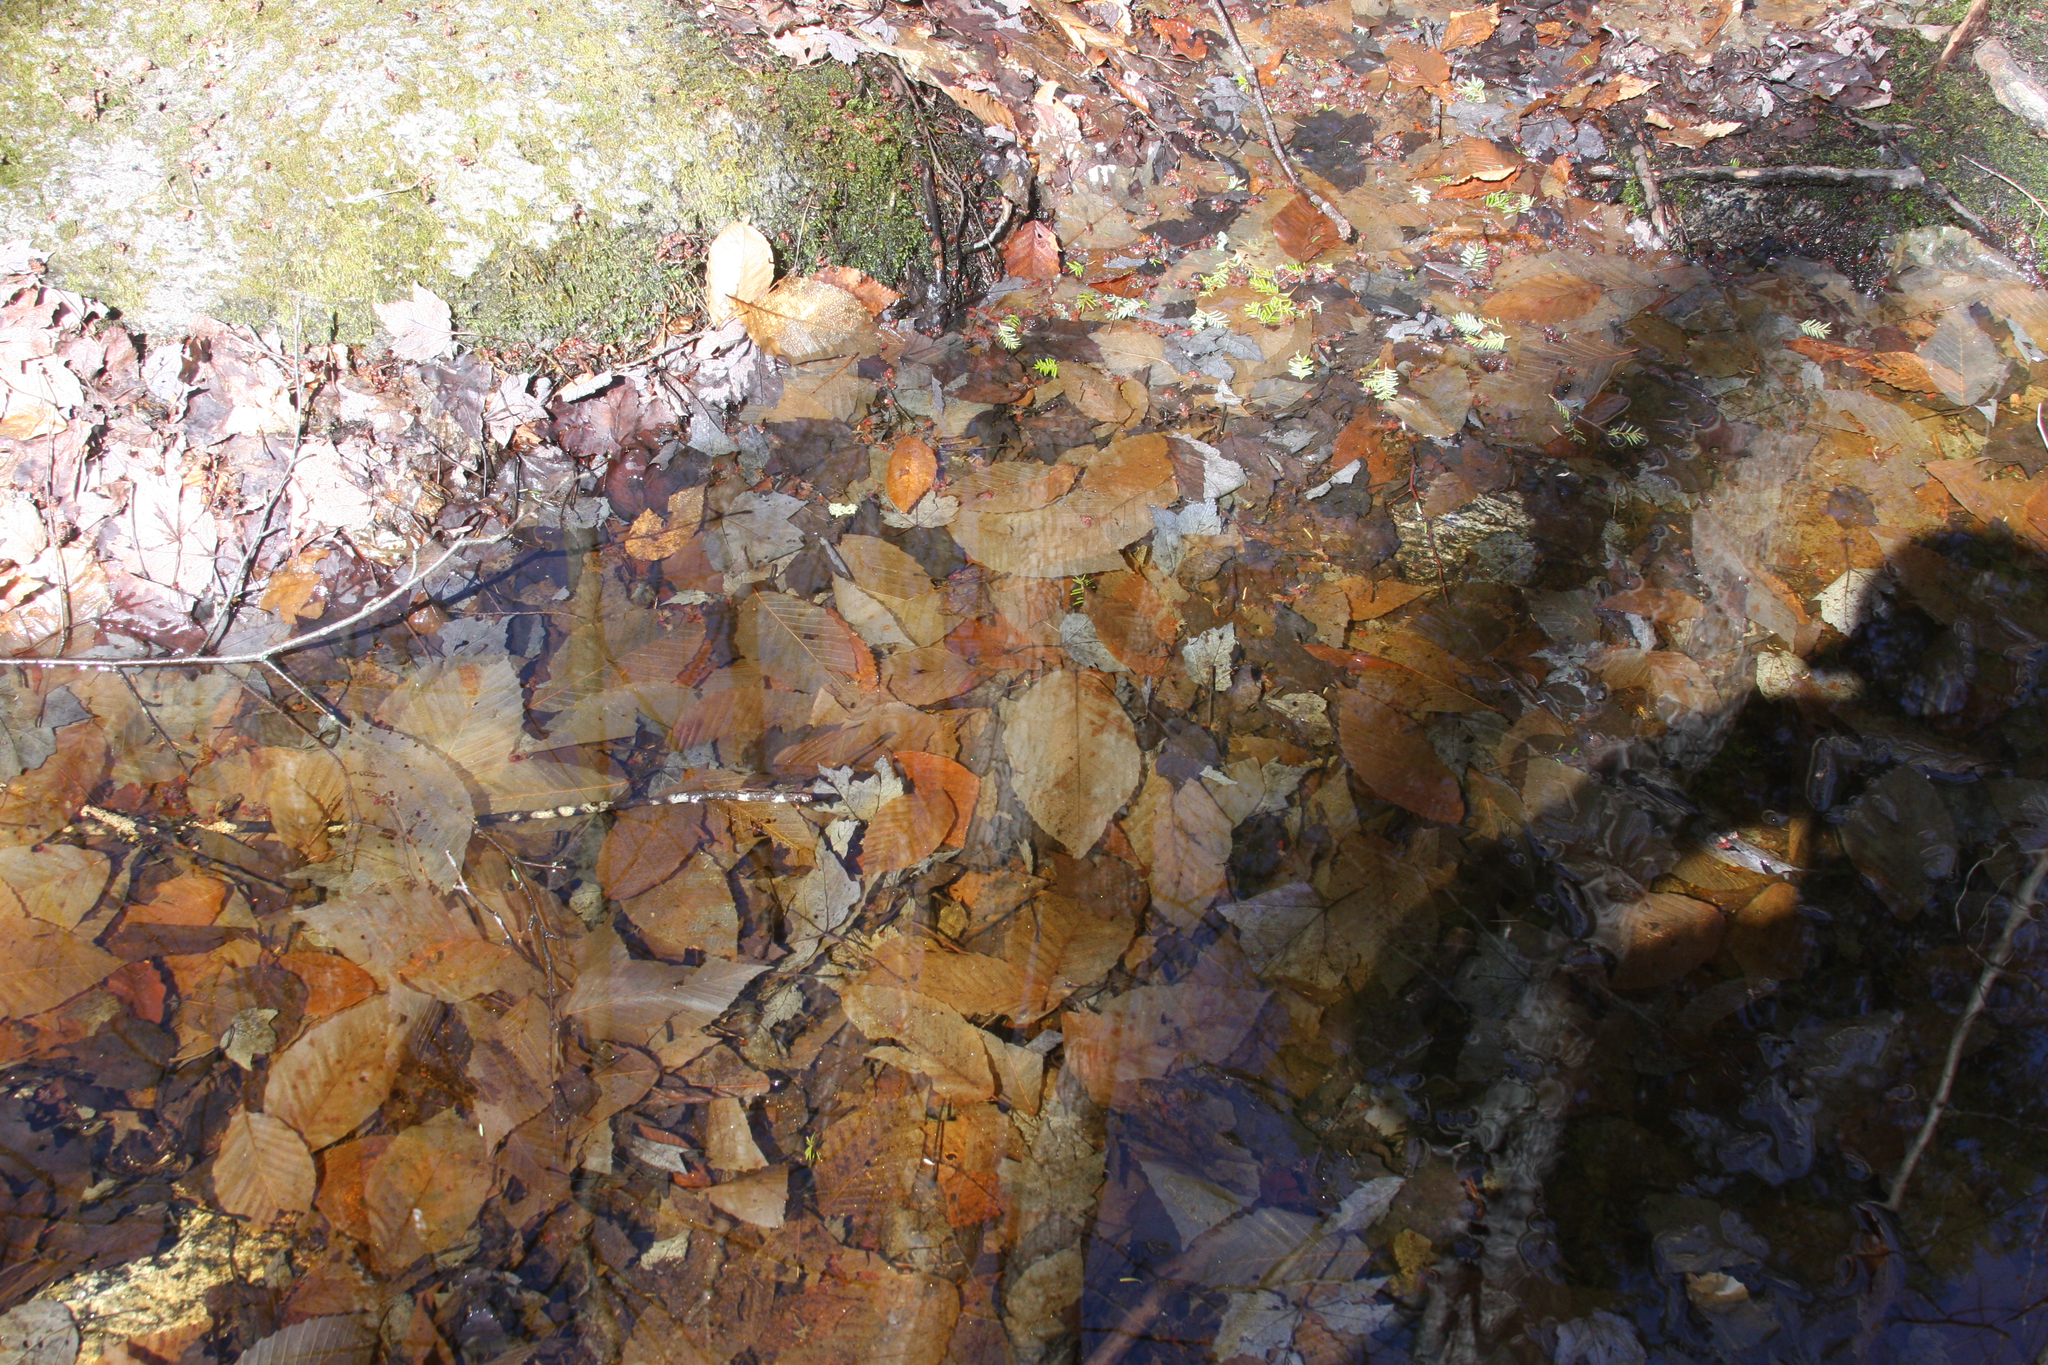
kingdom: Plantae
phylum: Tracheophyta
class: Magnoliopsida
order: Fagales
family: Fagaceae
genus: Fagus
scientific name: Fagus grandifolia
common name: American beech
